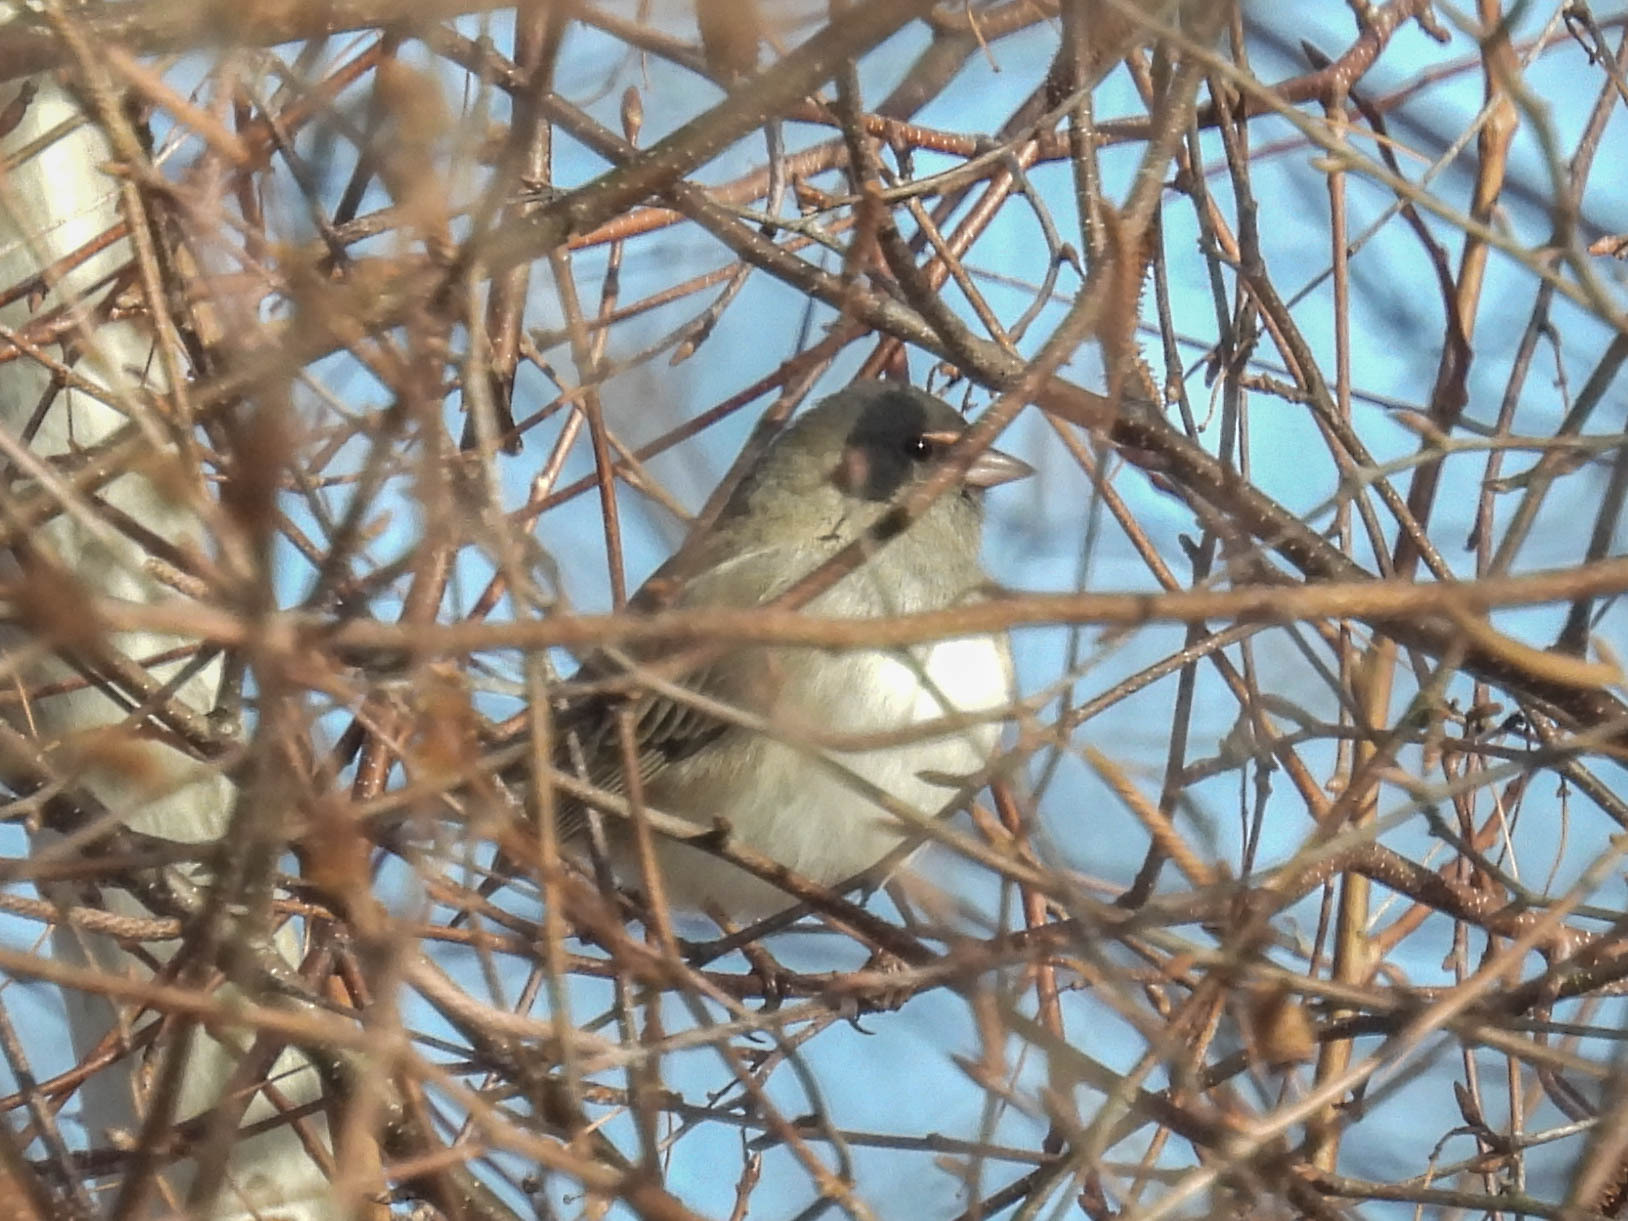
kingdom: Animalia
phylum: Chordata
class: Aves
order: Passeriformes
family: Passerellidae
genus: Junco
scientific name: Junco hyemalis
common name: Dark-eyed junco
